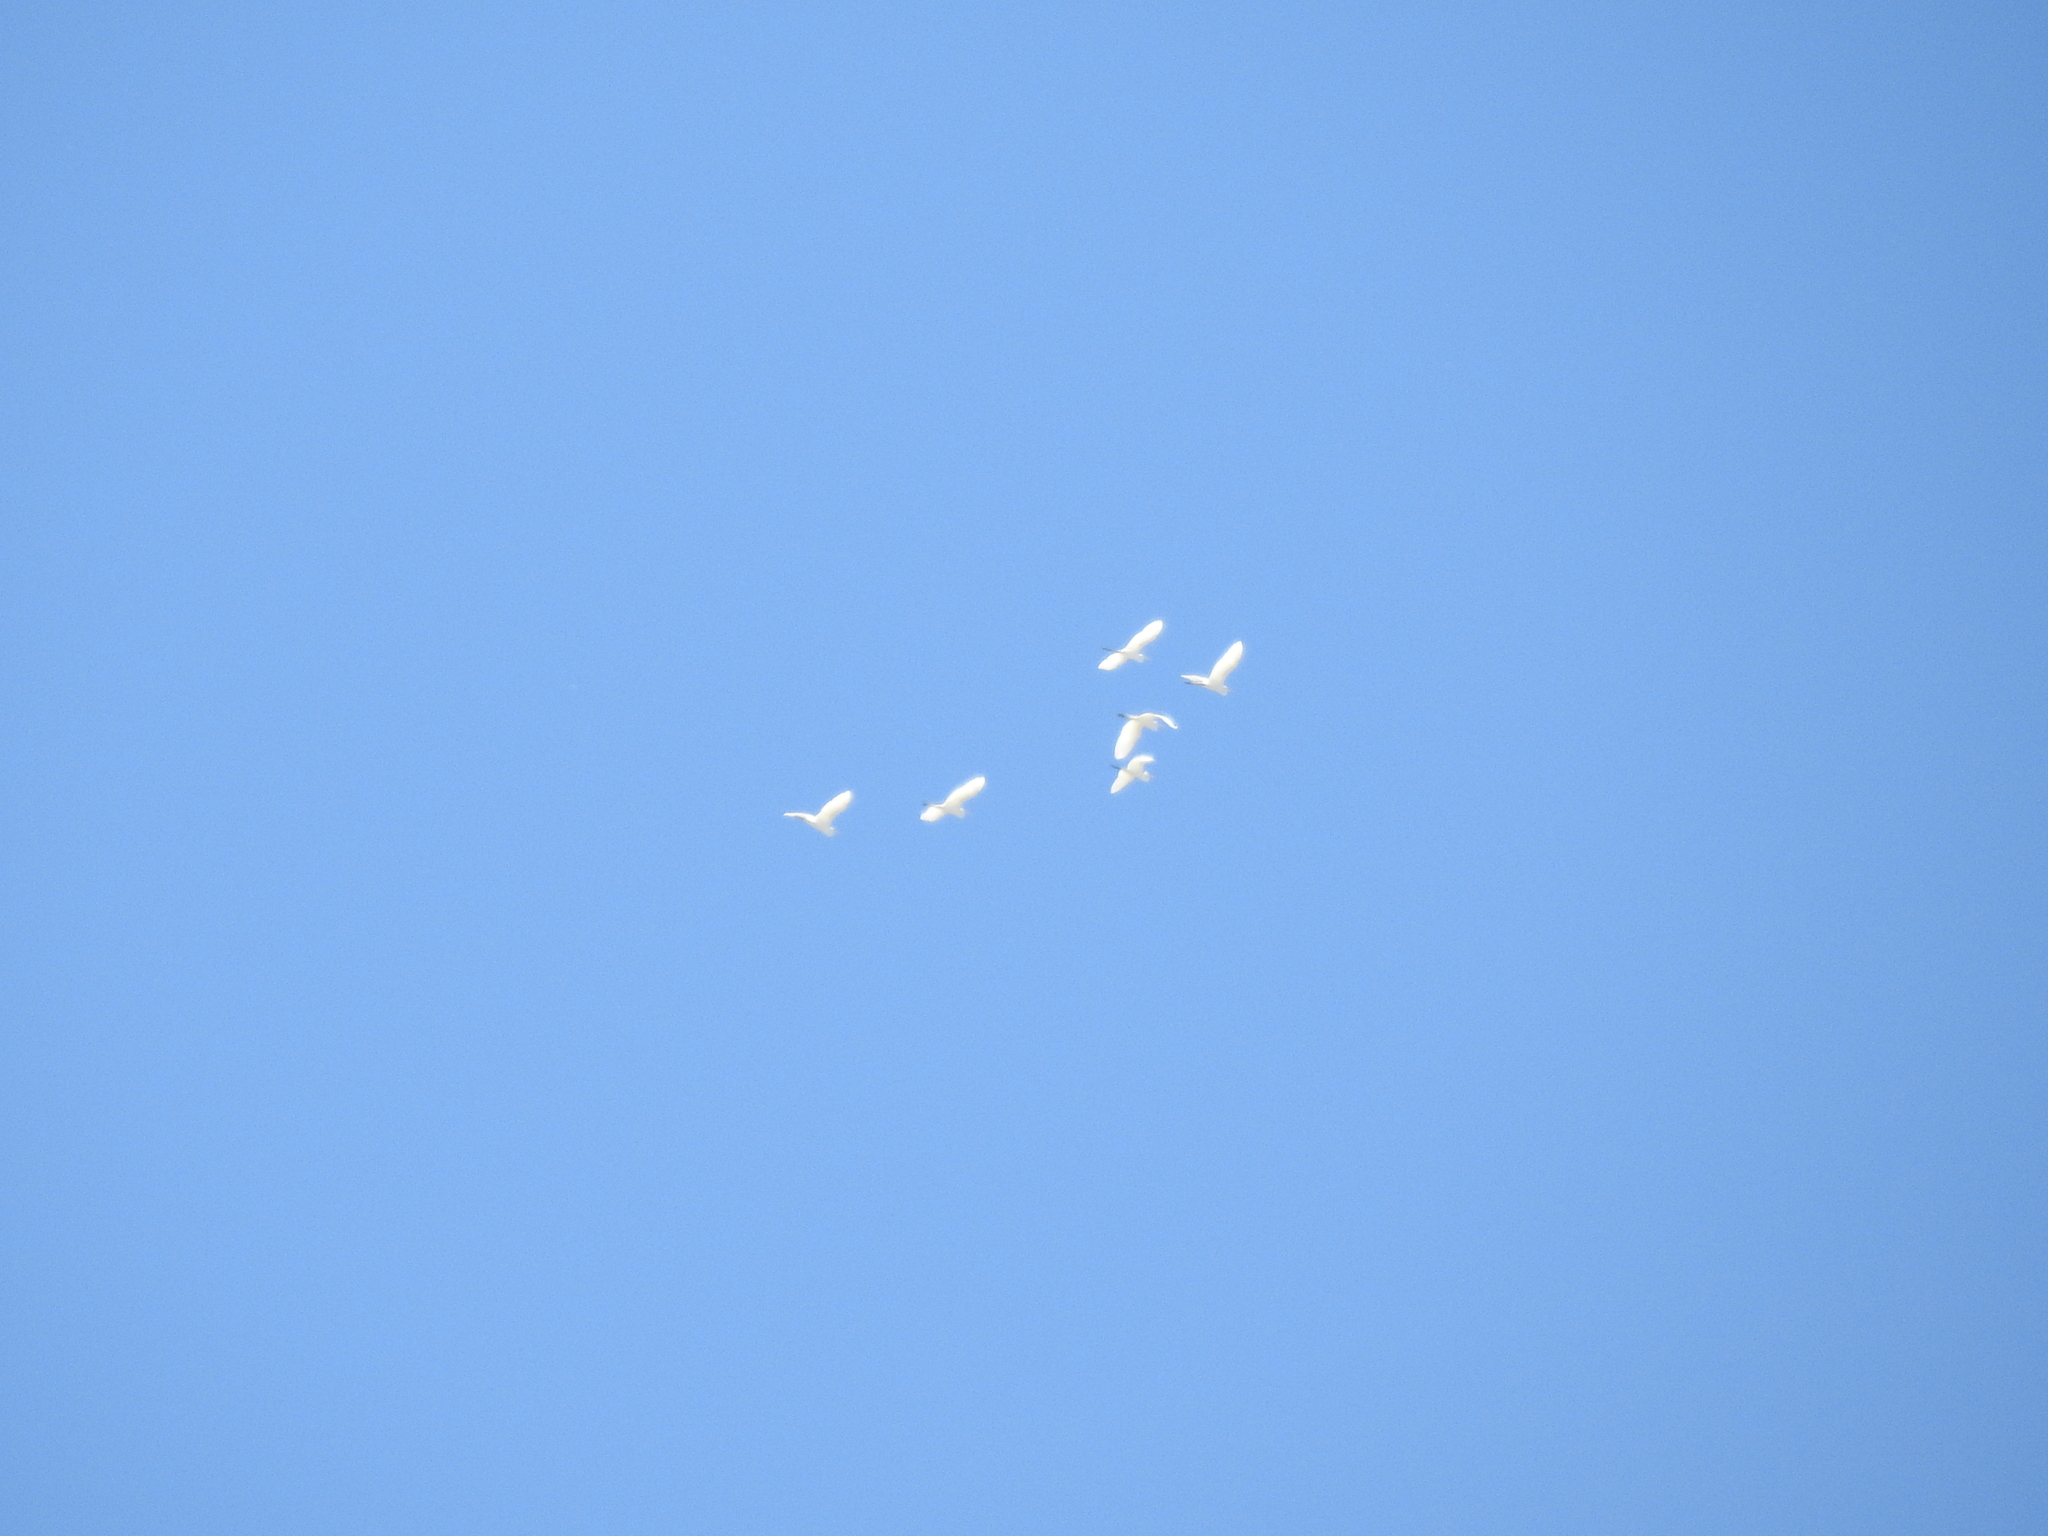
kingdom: Animalia
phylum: Chordata
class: Aves
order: Pelecaniformes
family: Ardeidae
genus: Ardea
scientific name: Ardea alba
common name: Great egret
